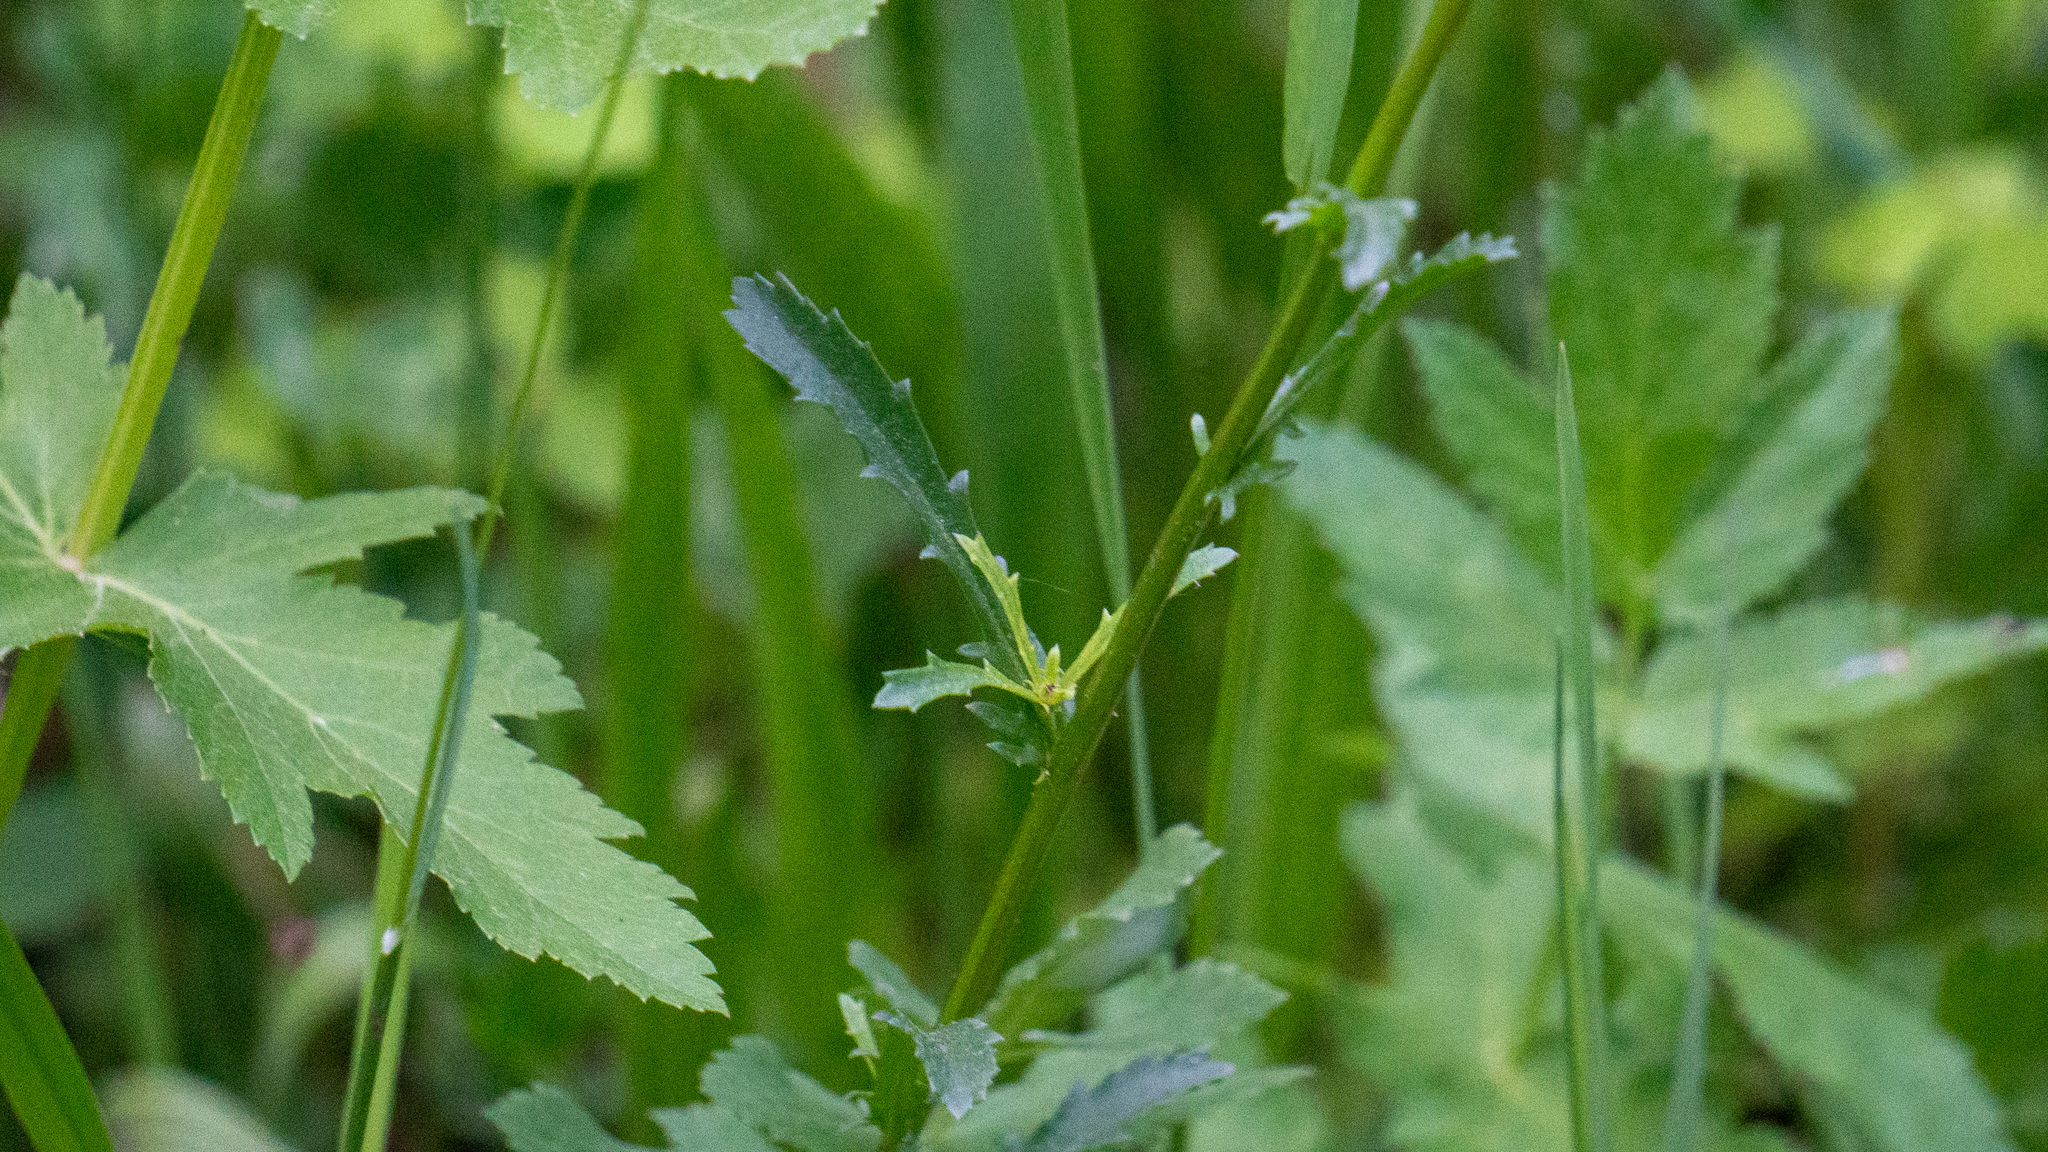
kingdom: Plantae
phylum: Tracheophyta
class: Magnoliopsida
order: Asterales
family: Asteraceae
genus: Leucanthemum
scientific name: Leucanthemum vulgare
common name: Oxeye daisy
